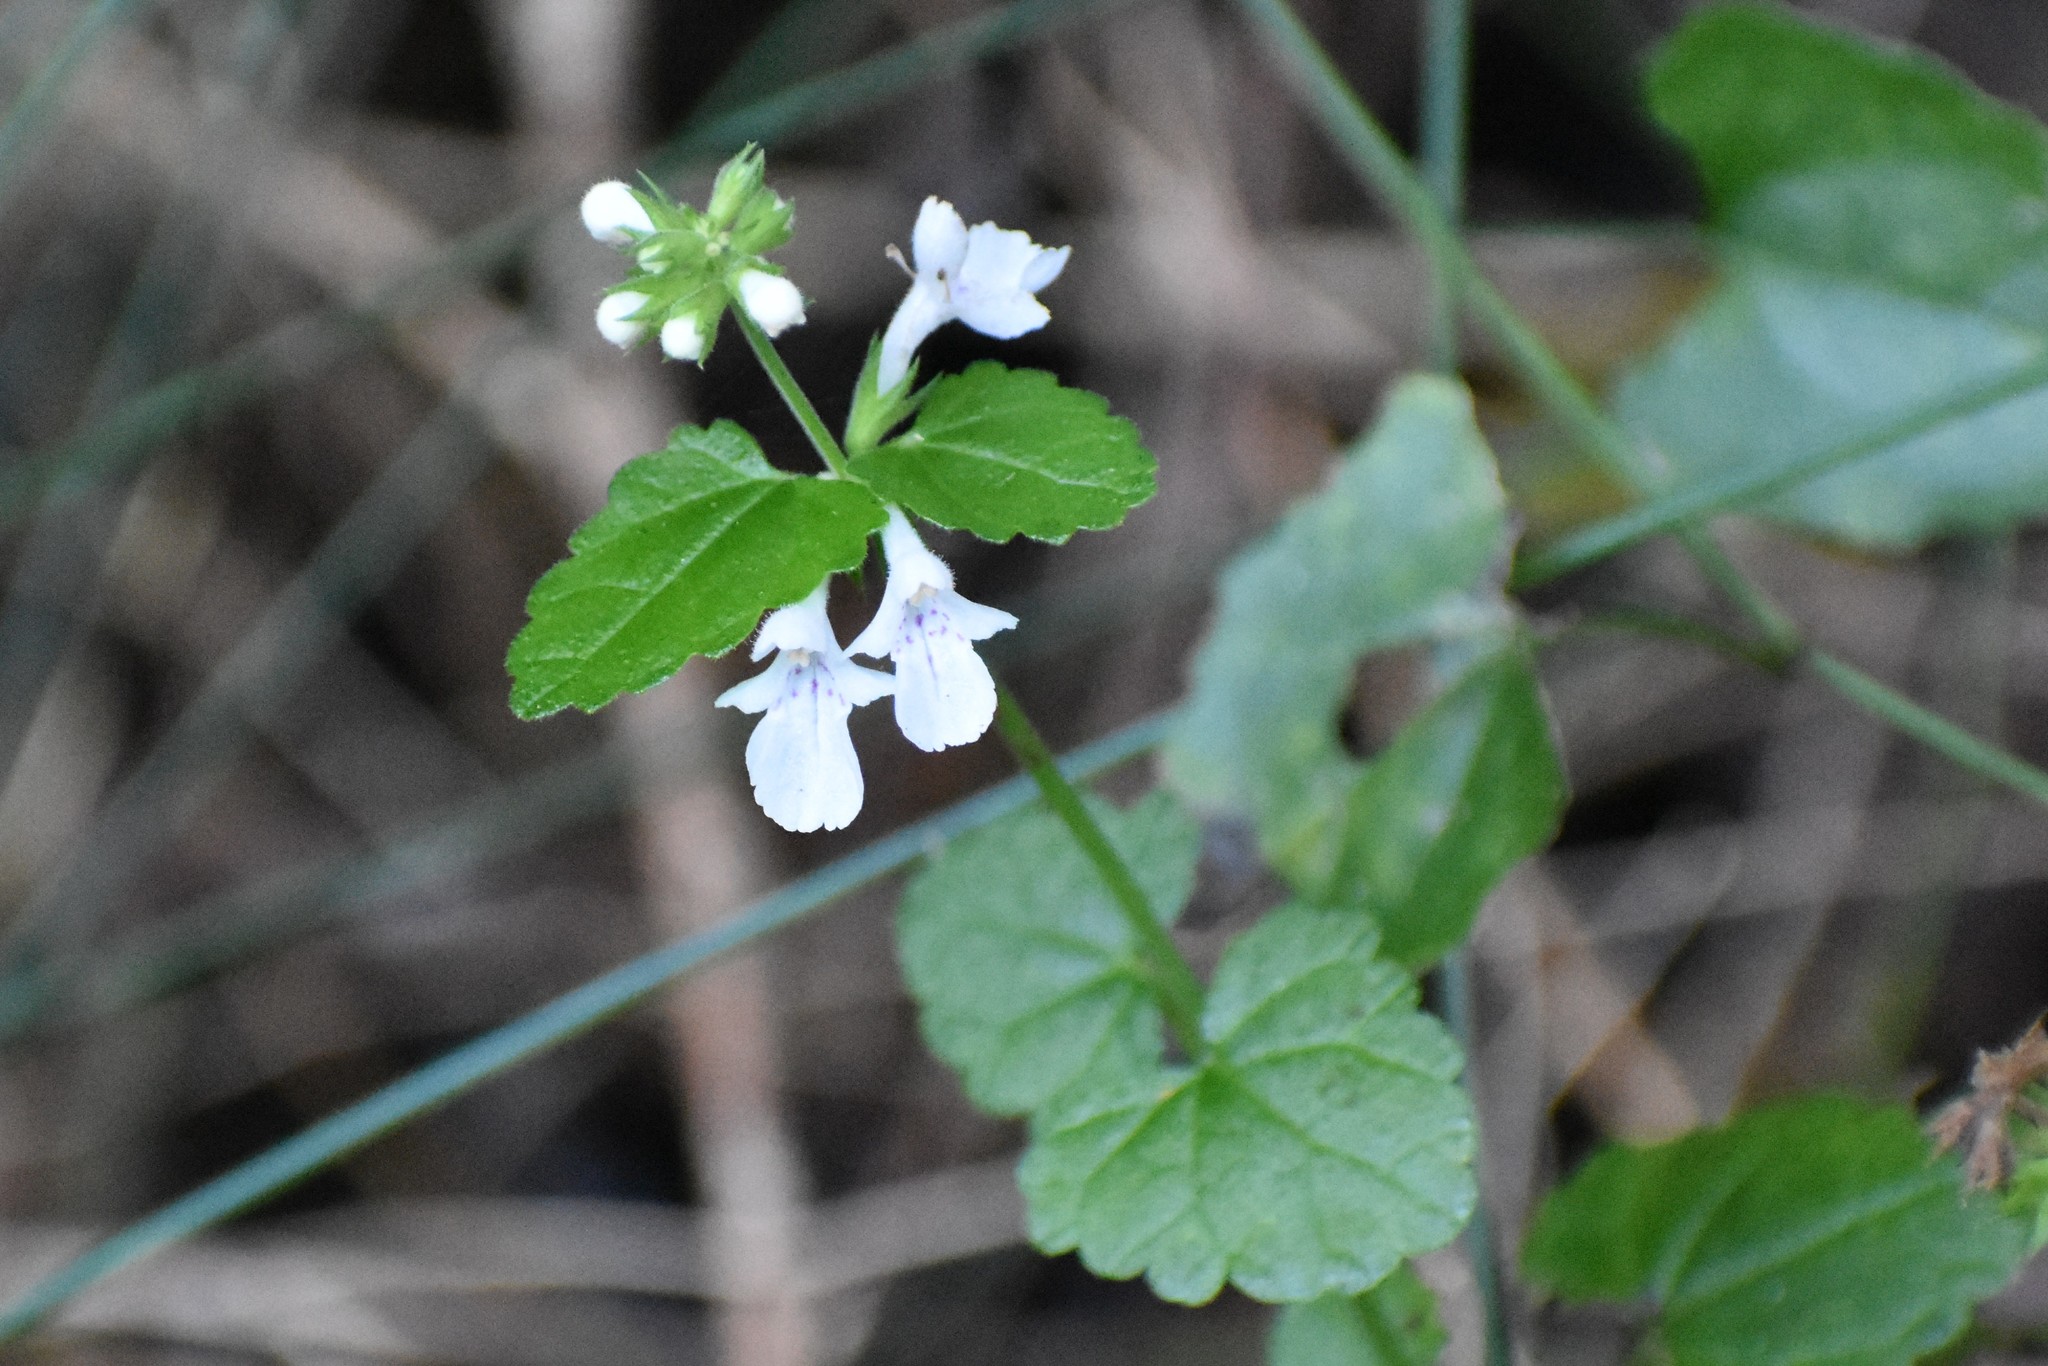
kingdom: Plantae
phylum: Tracheophyta
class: Magnoliopsida
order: Lamiales
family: Lamiaceae
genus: Stachys
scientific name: Stachys aethiopica
